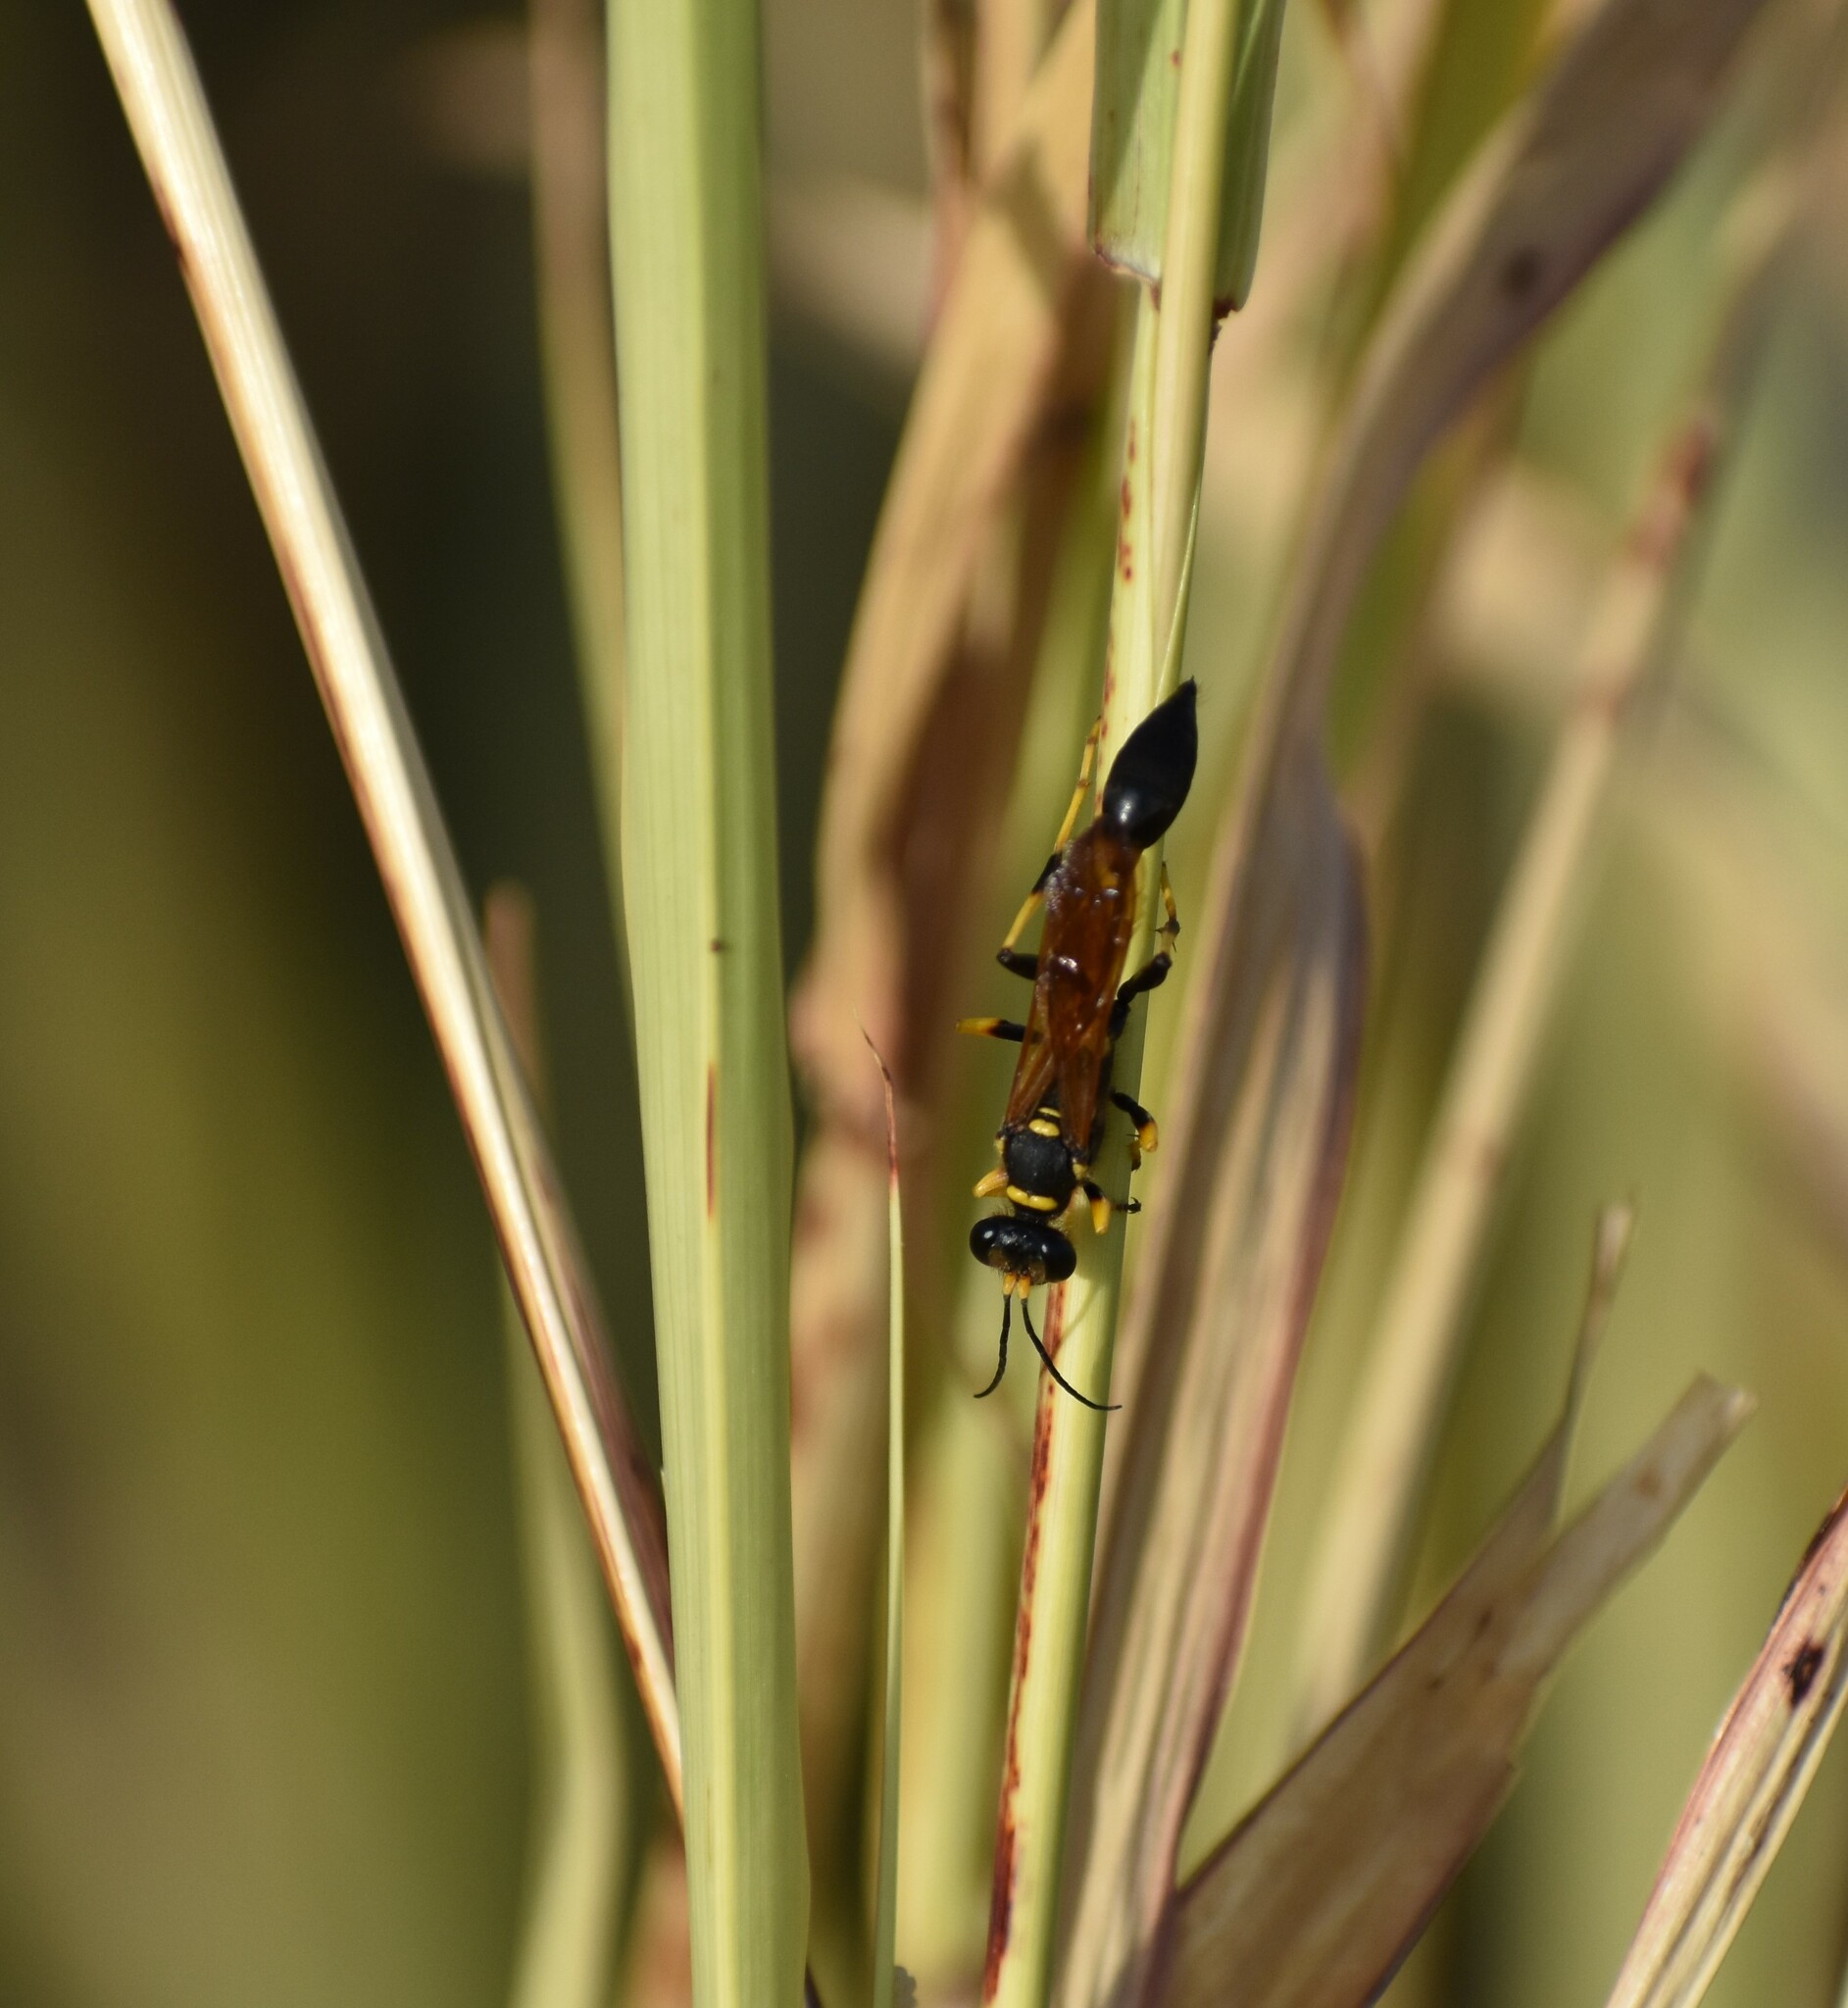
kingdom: Animalia
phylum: Arthropoda
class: Insecta
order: Hymenoptera
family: Sphecidae
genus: Sceliphron
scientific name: Sceliphron caementarium
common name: Mud dauber
